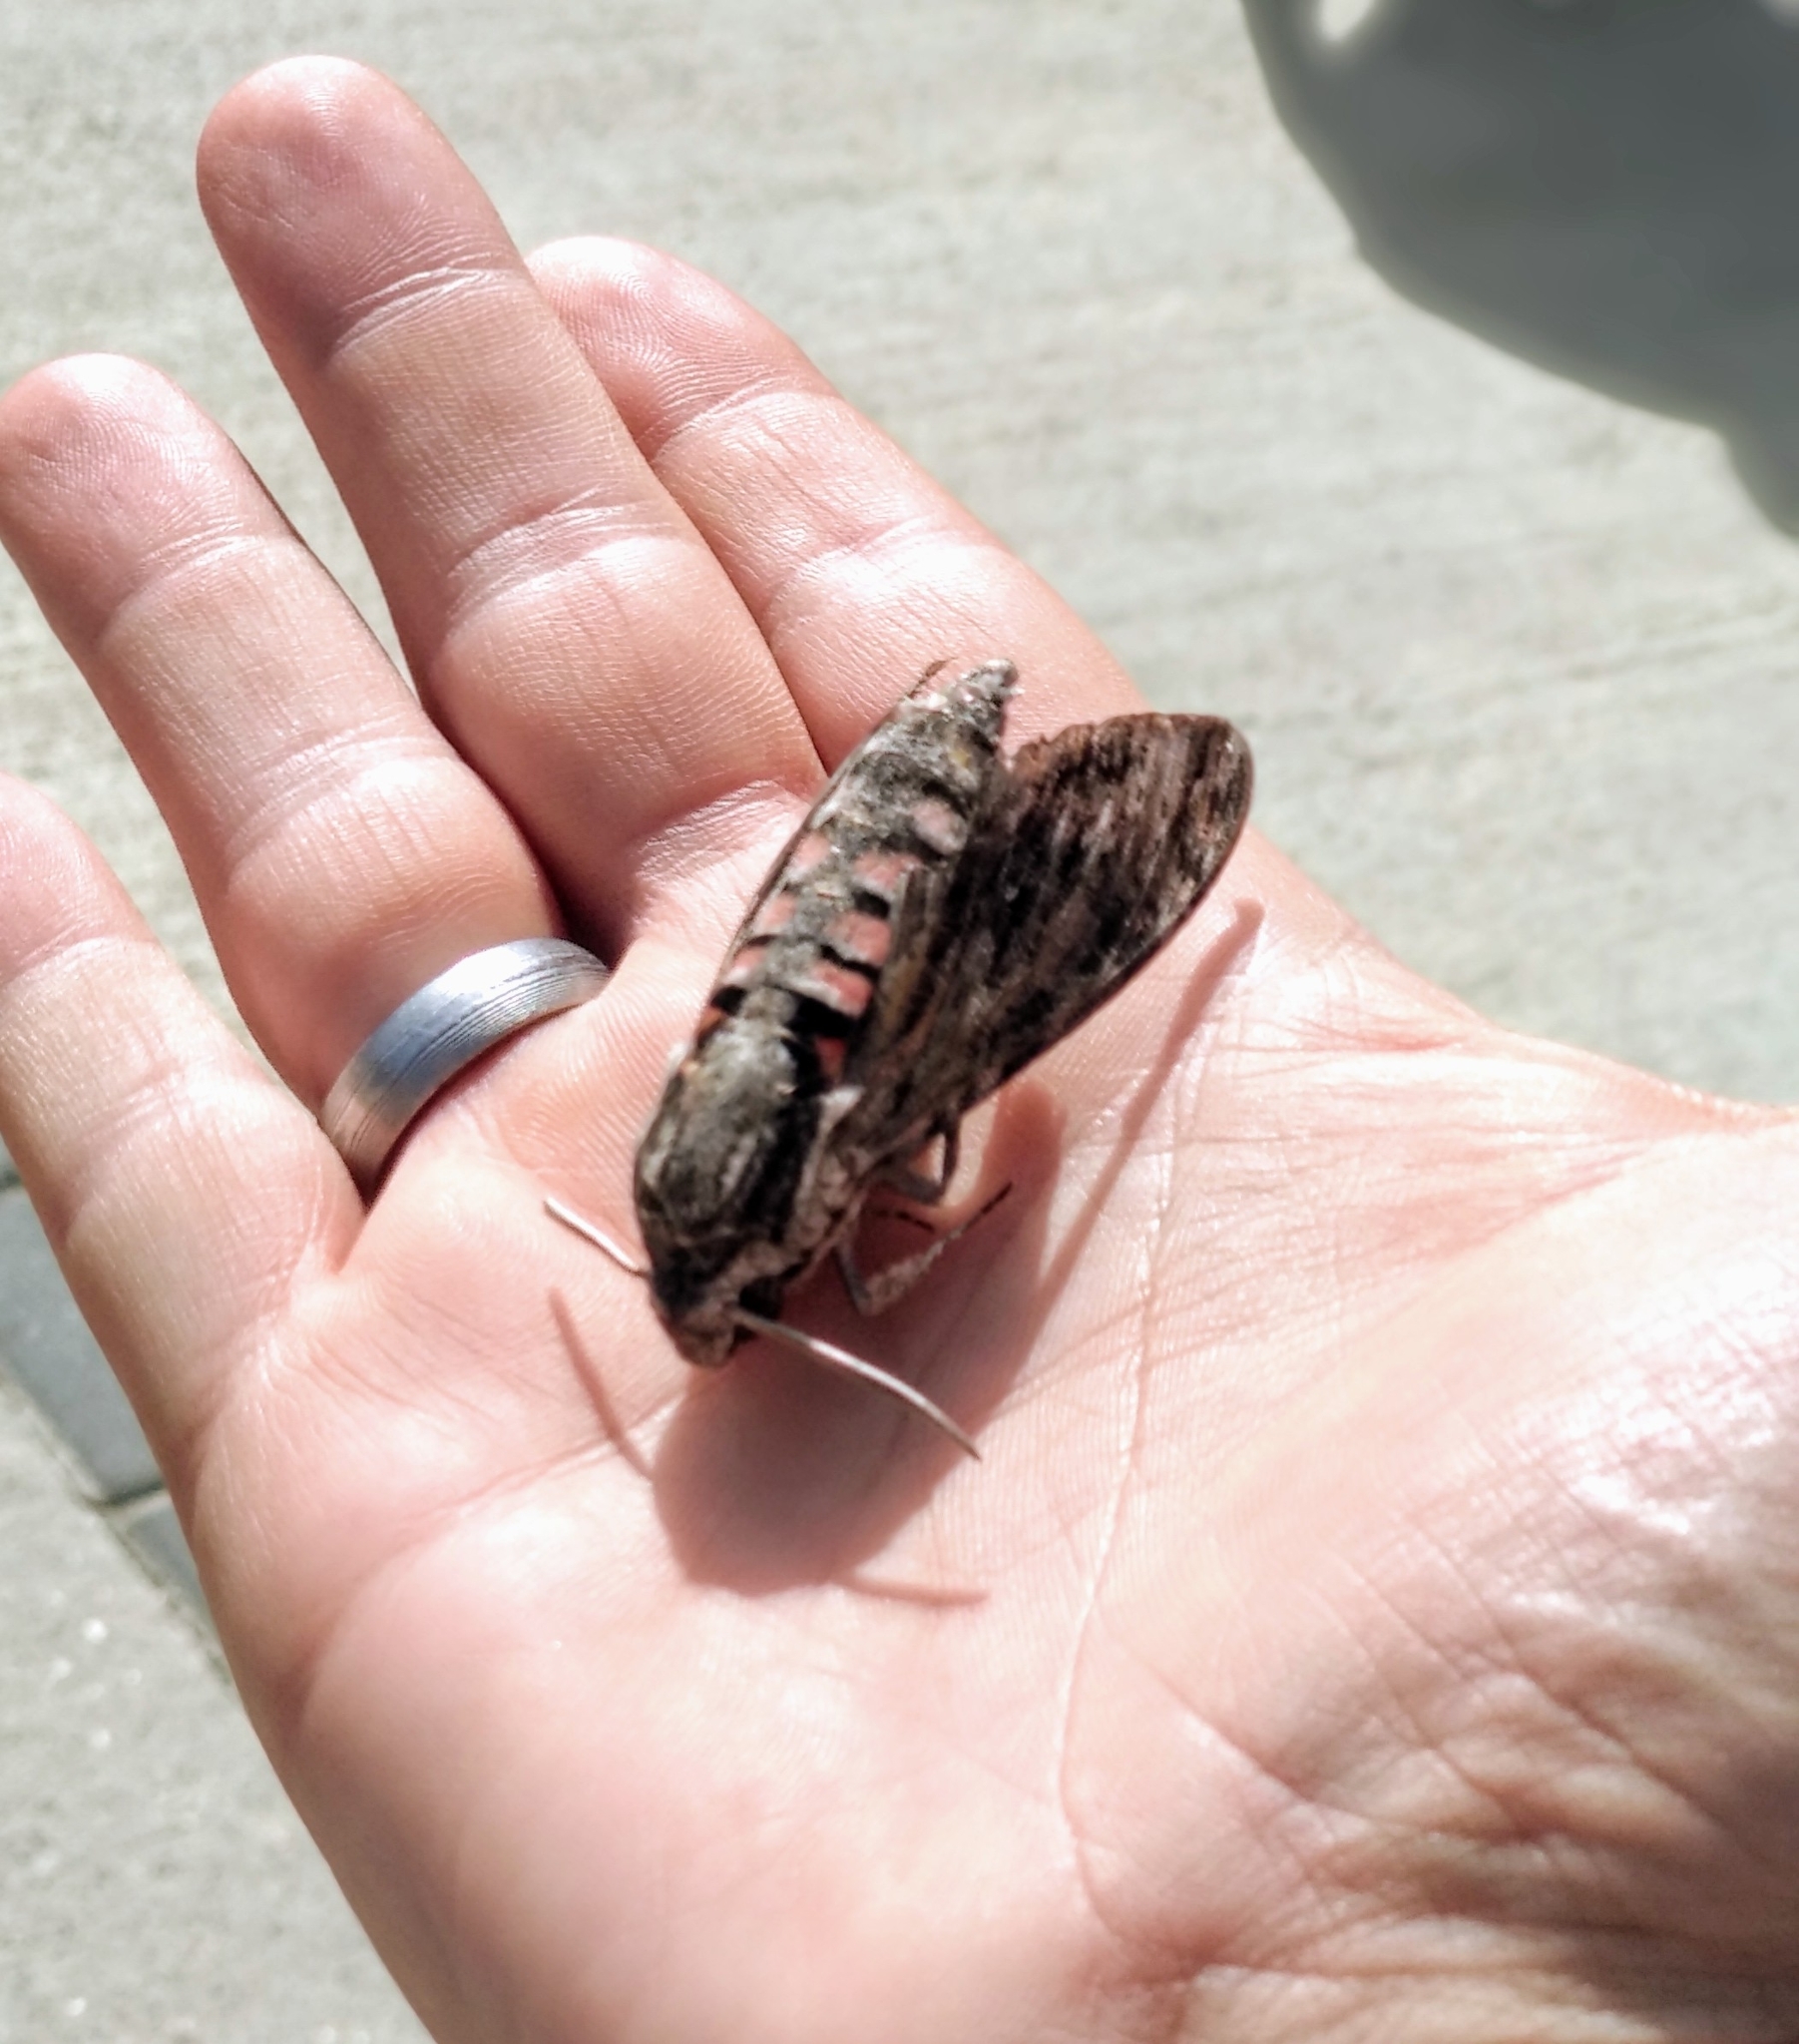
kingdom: Animalia
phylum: Arthropoda
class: Insecta
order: Lepidoptera
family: Sphingidae
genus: Agrius
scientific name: Agrius convolvuli
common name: Convolvulus hawkmoth
